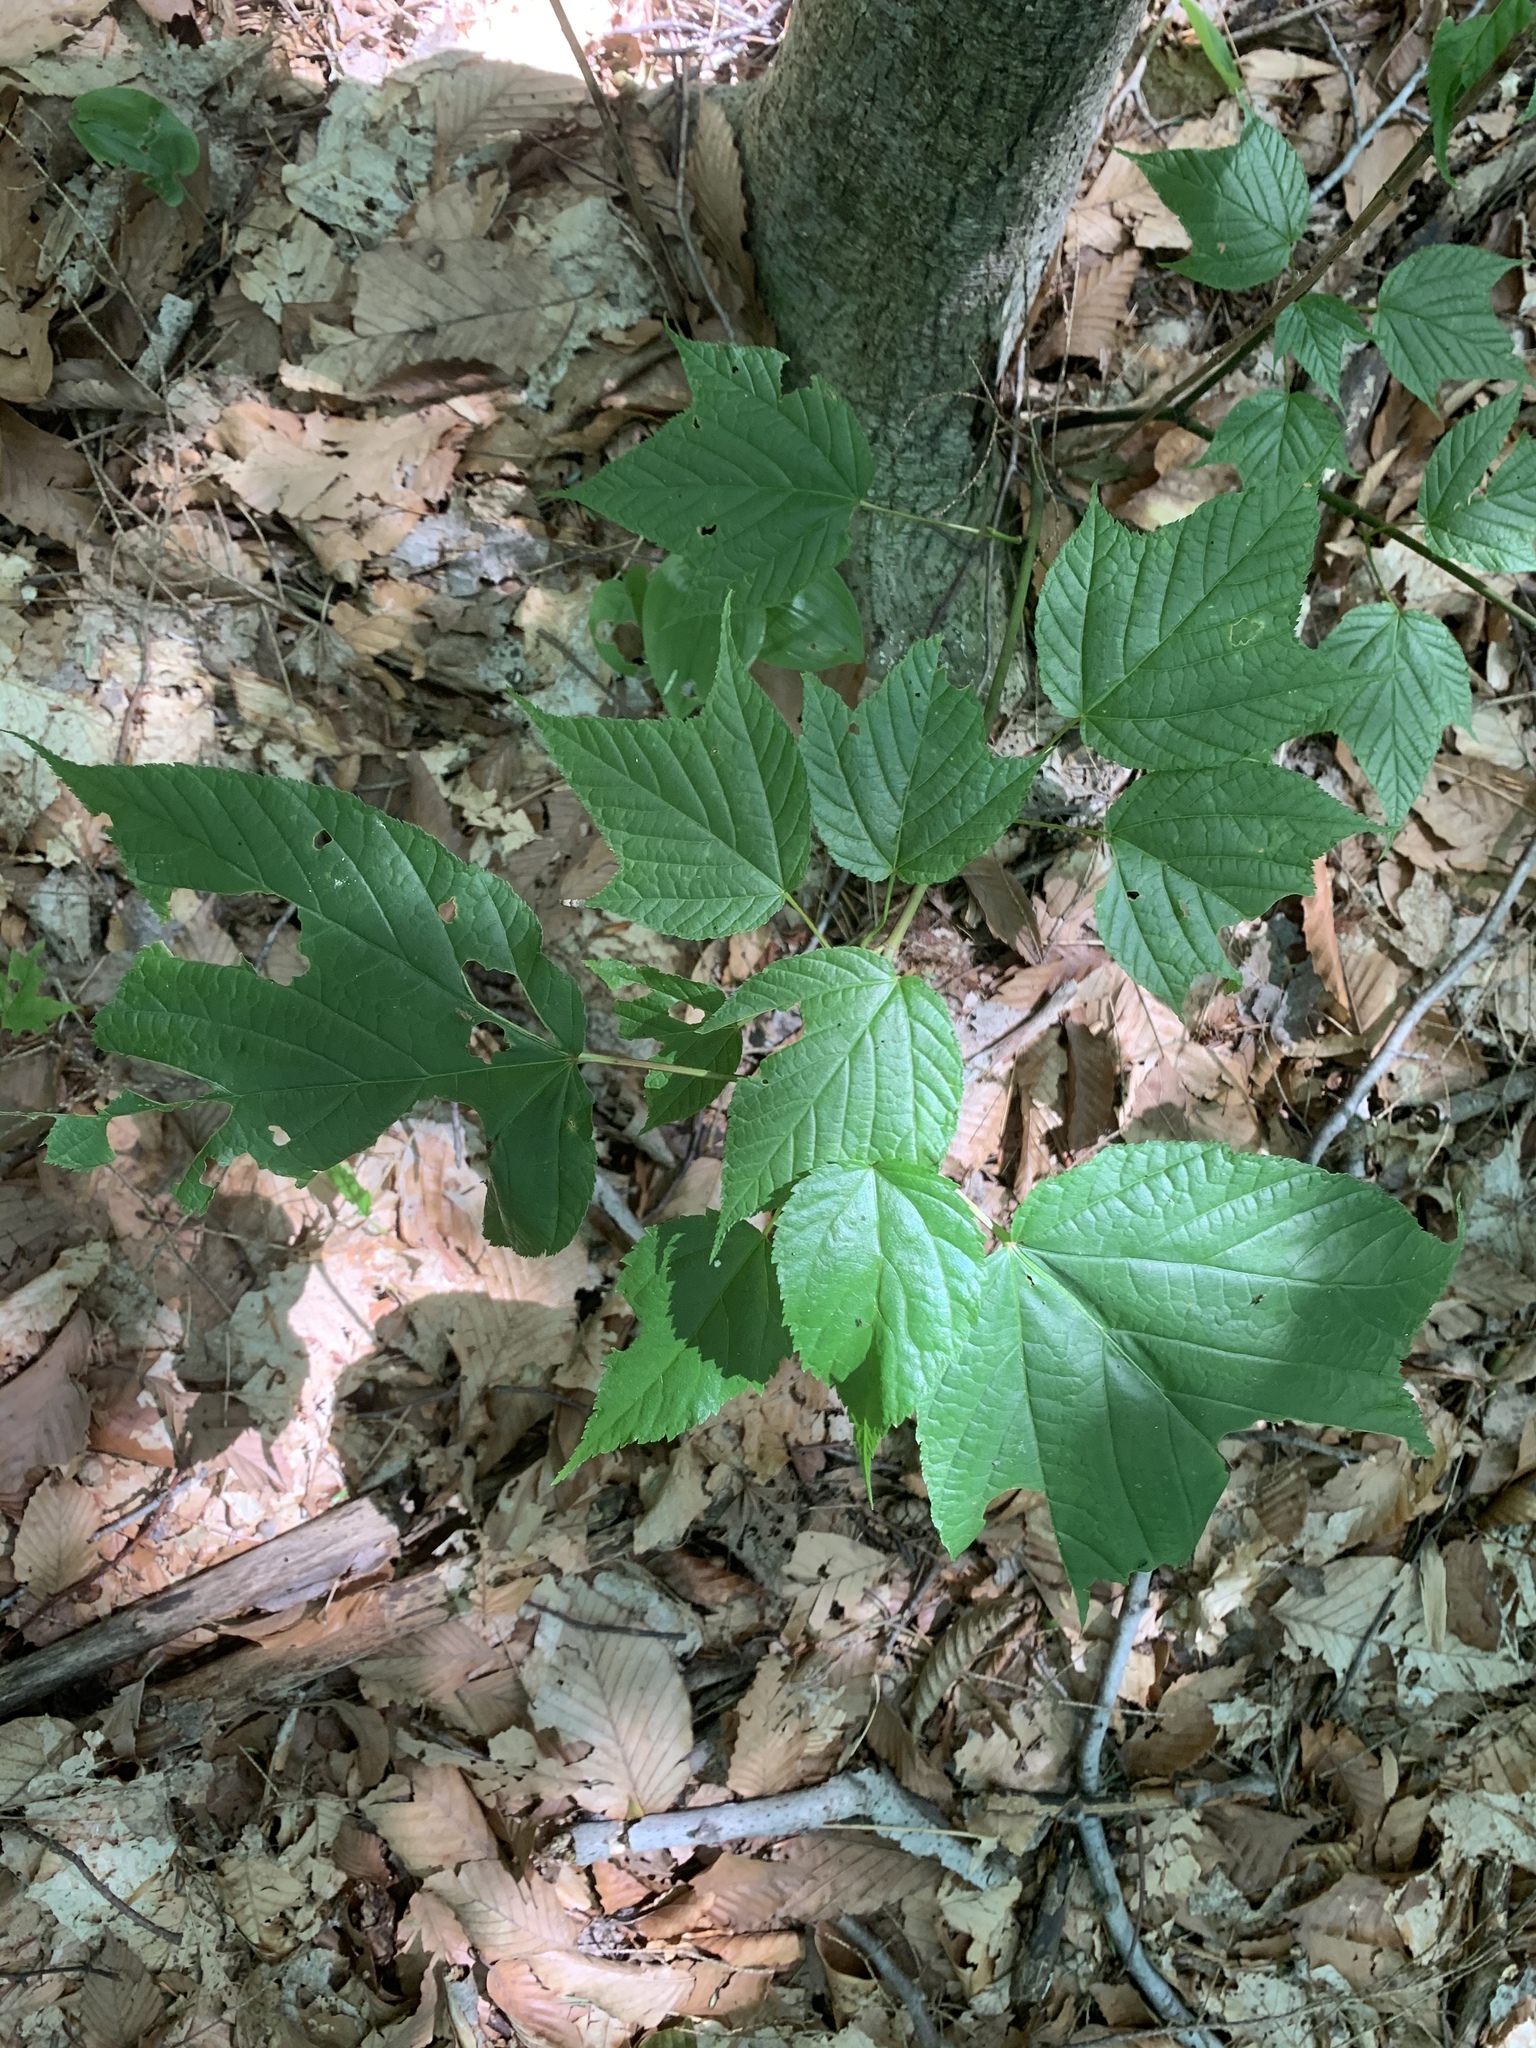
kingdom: Plantae
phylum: Tracheophyta
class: Magnoliopsida
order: Sapindales
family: Sapindaceae
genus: Acer
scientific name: Acer pensylvanicum
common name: Moosewood
